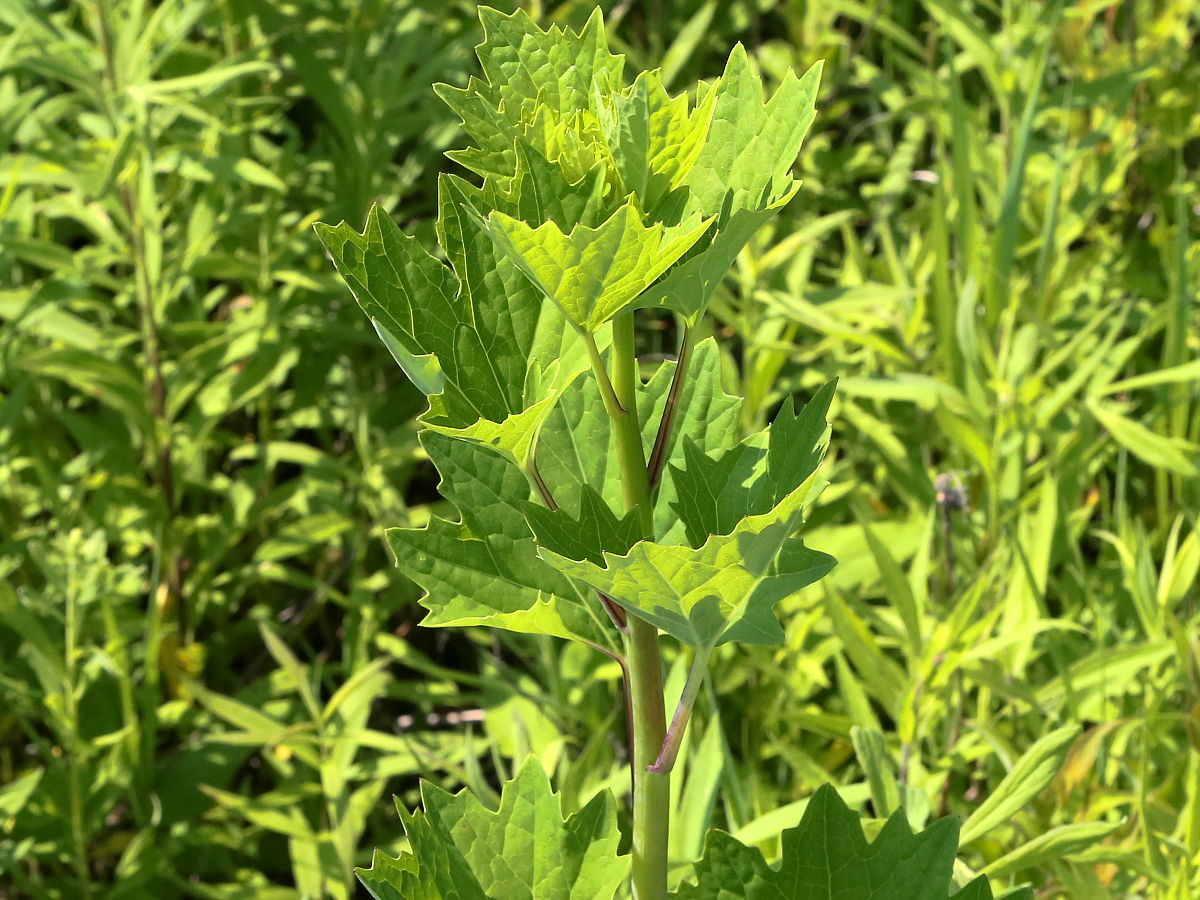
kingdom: Plantae
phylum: Tracheophyta
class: Magnoliopsida
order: Asterales
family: Asteraceae
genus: Arnoglossum
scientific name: Arnoglossum atriplicifolium
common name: Pale indian-plantain
